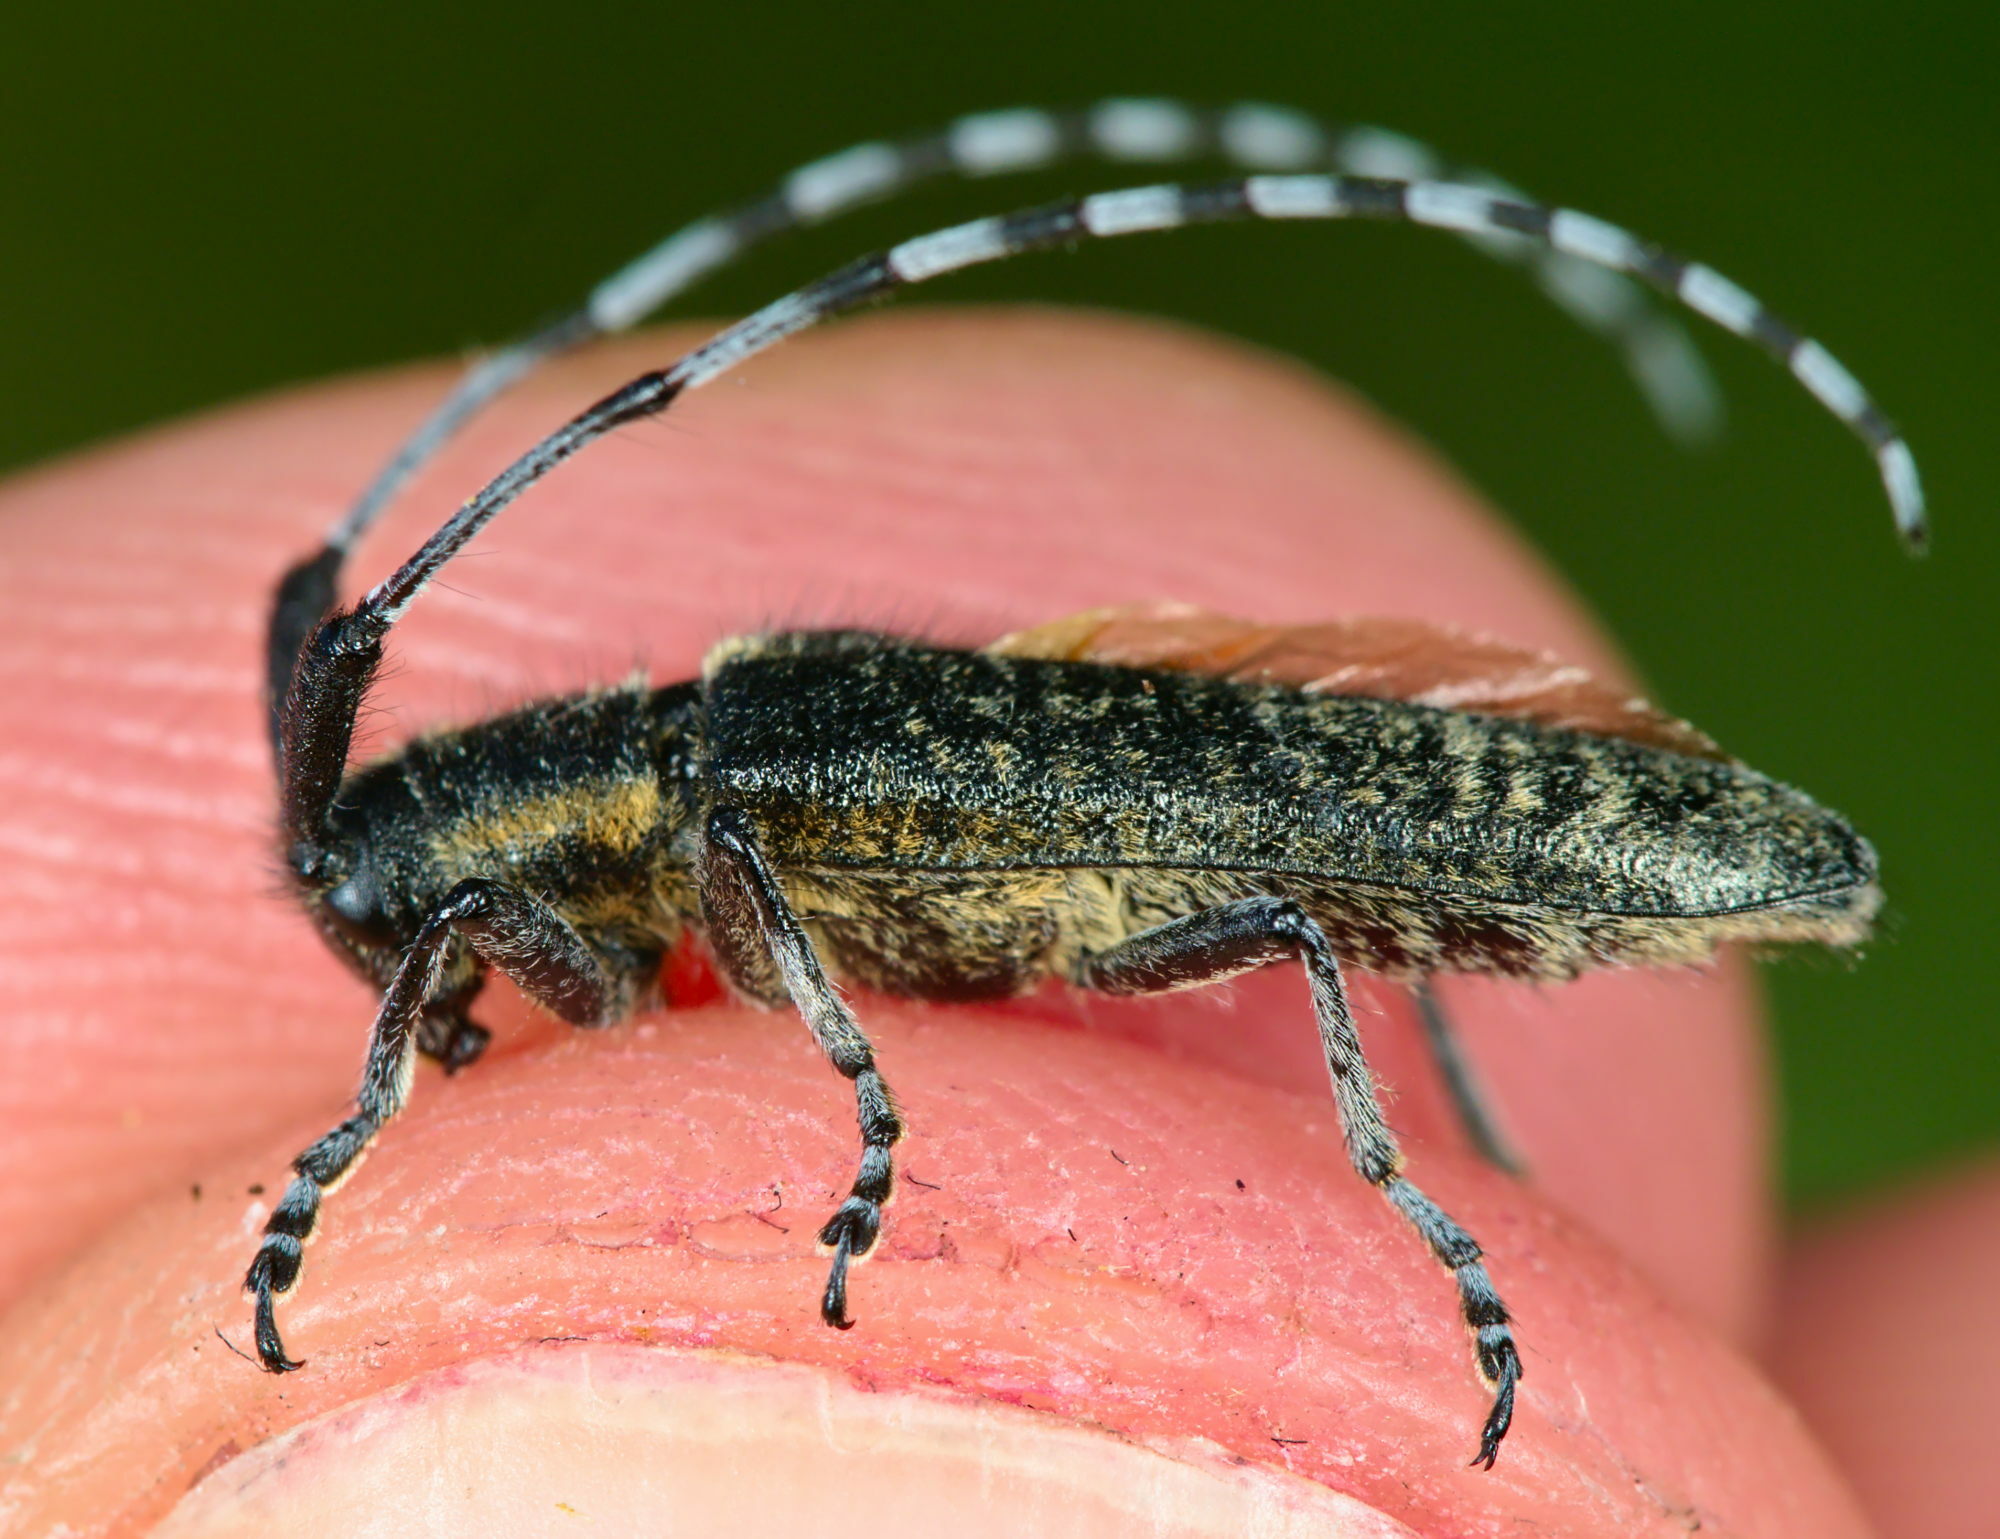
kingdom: Animalia
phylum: Arthropoda
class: Insecta
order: Coleoptera
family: Cerambycidae
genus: Agapanthia
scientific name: Agapanthia villosoviridescens
